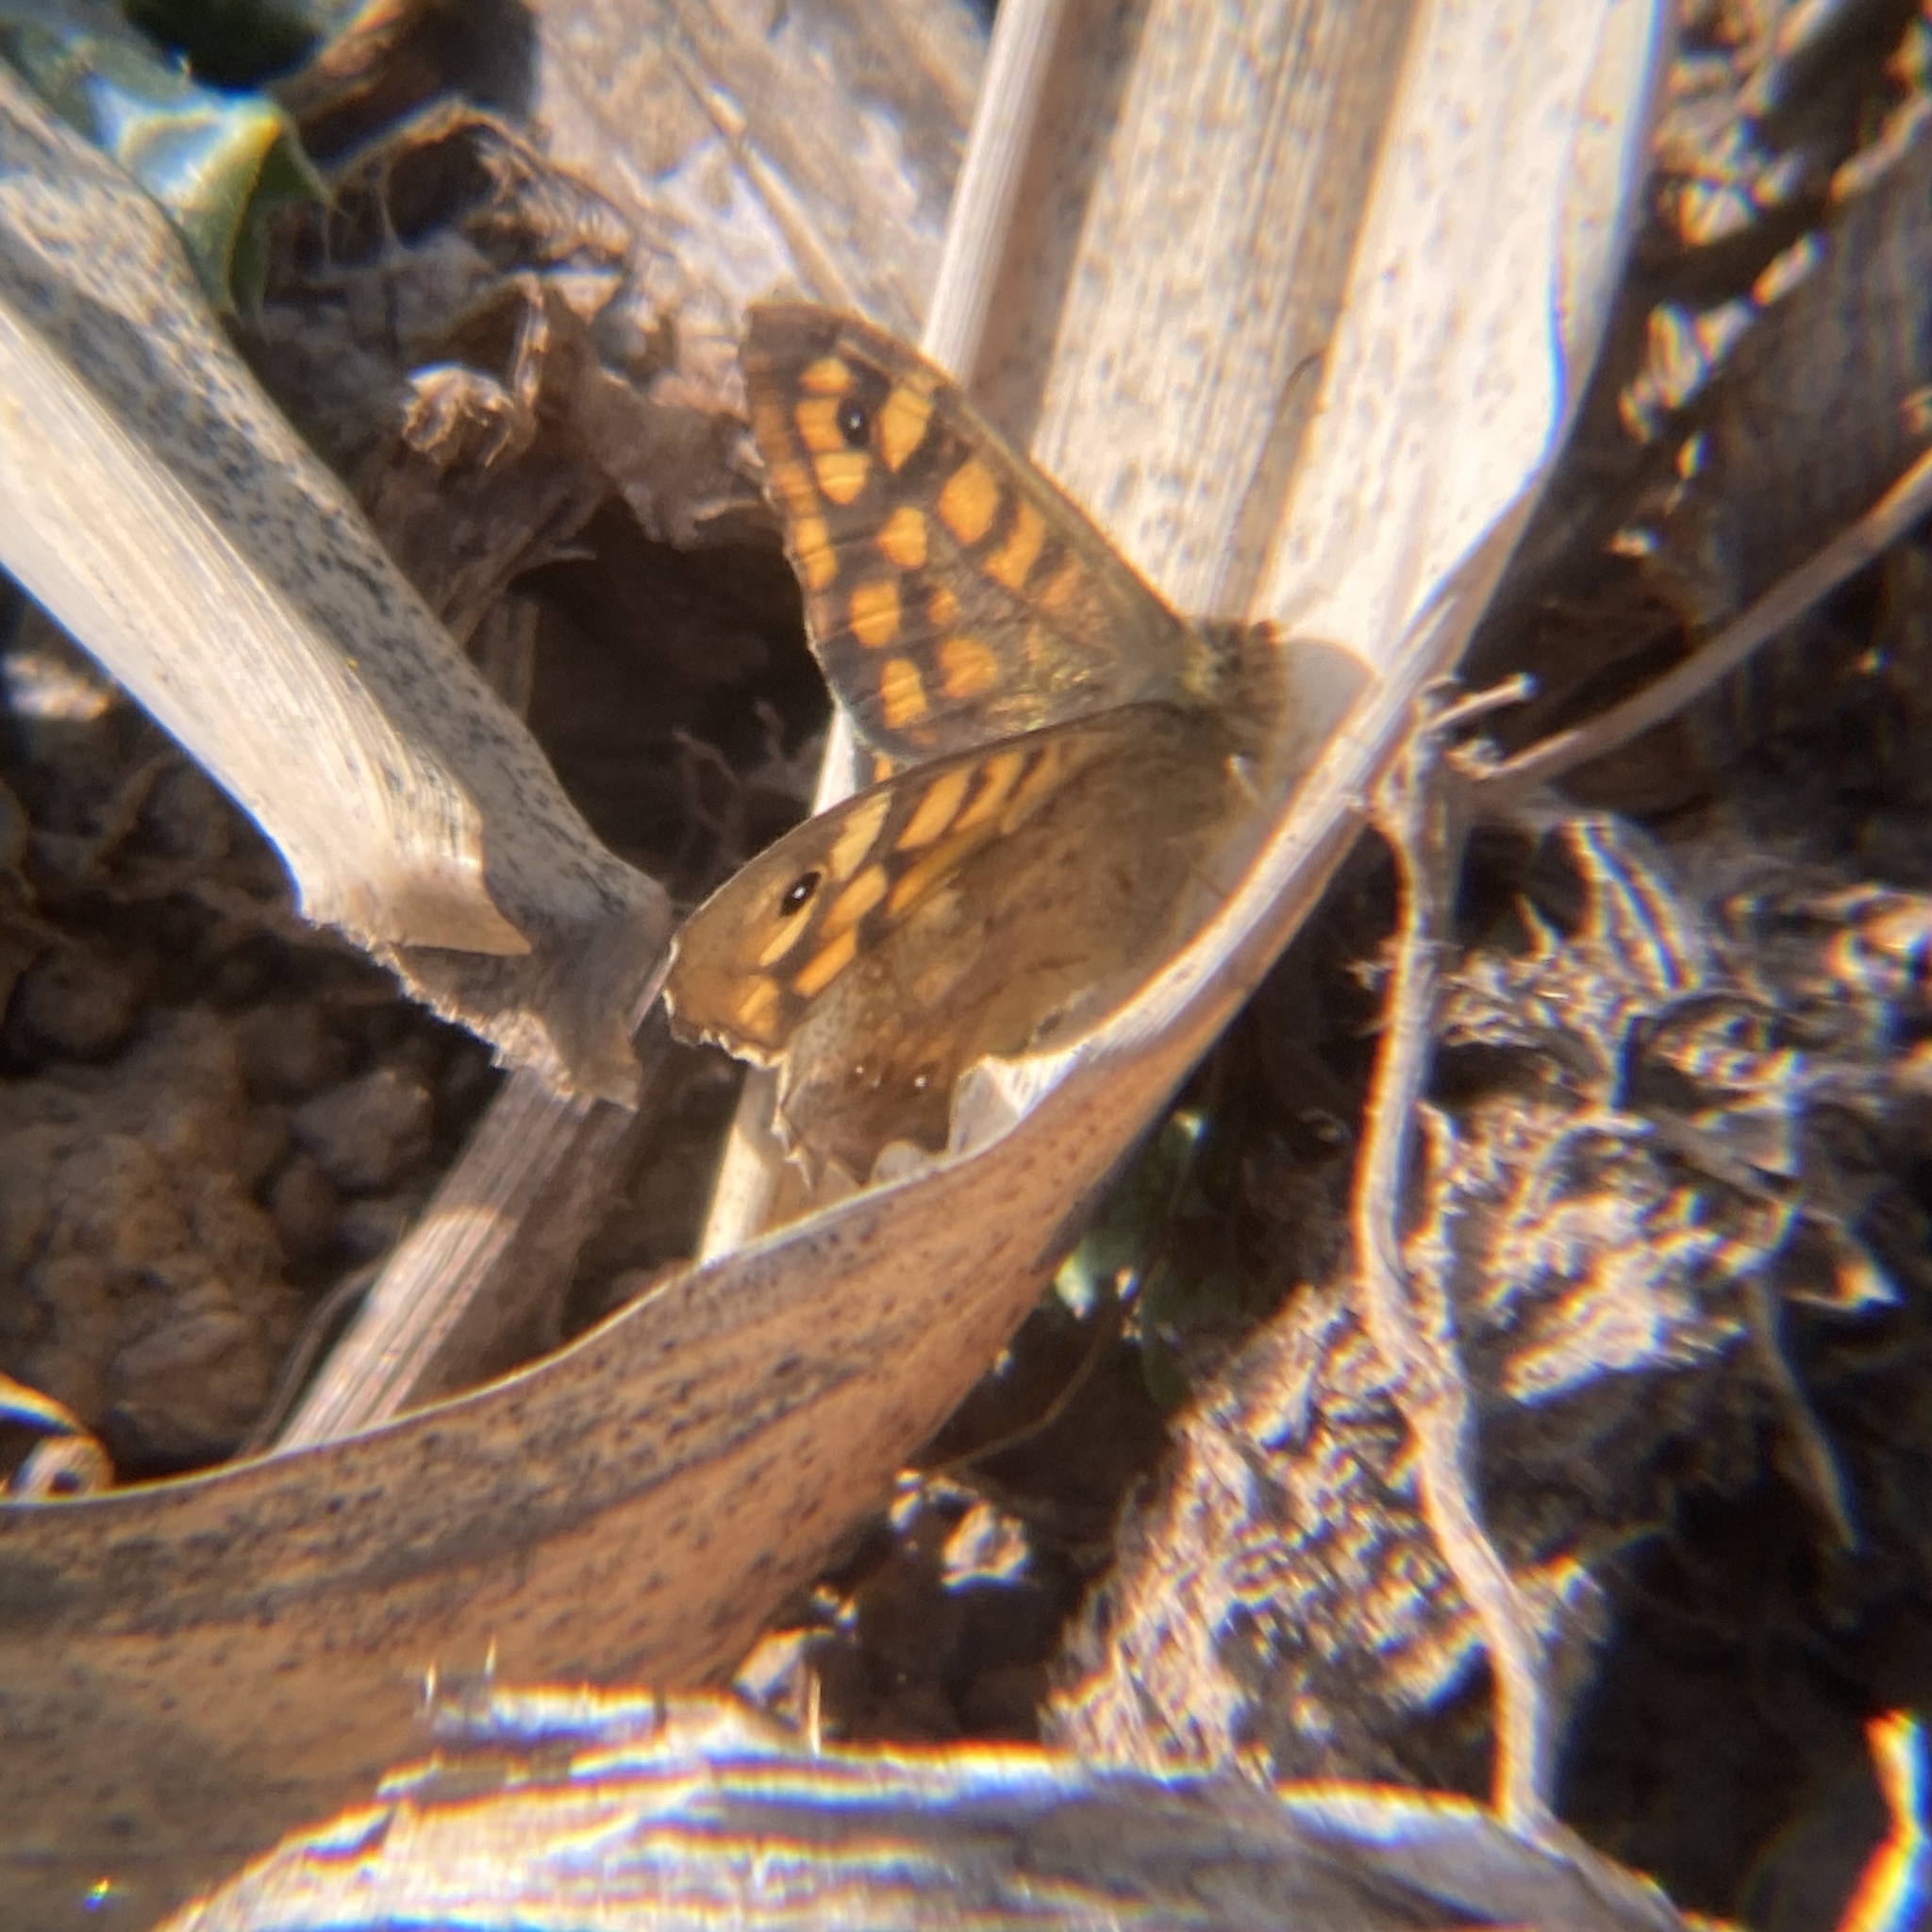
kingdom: Animalia
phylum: Arthropoda
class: Insecta
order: Lepidoptera
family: Nymphalidae
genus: Pararge
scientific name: Pararge aegeria
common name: Speckled wood
